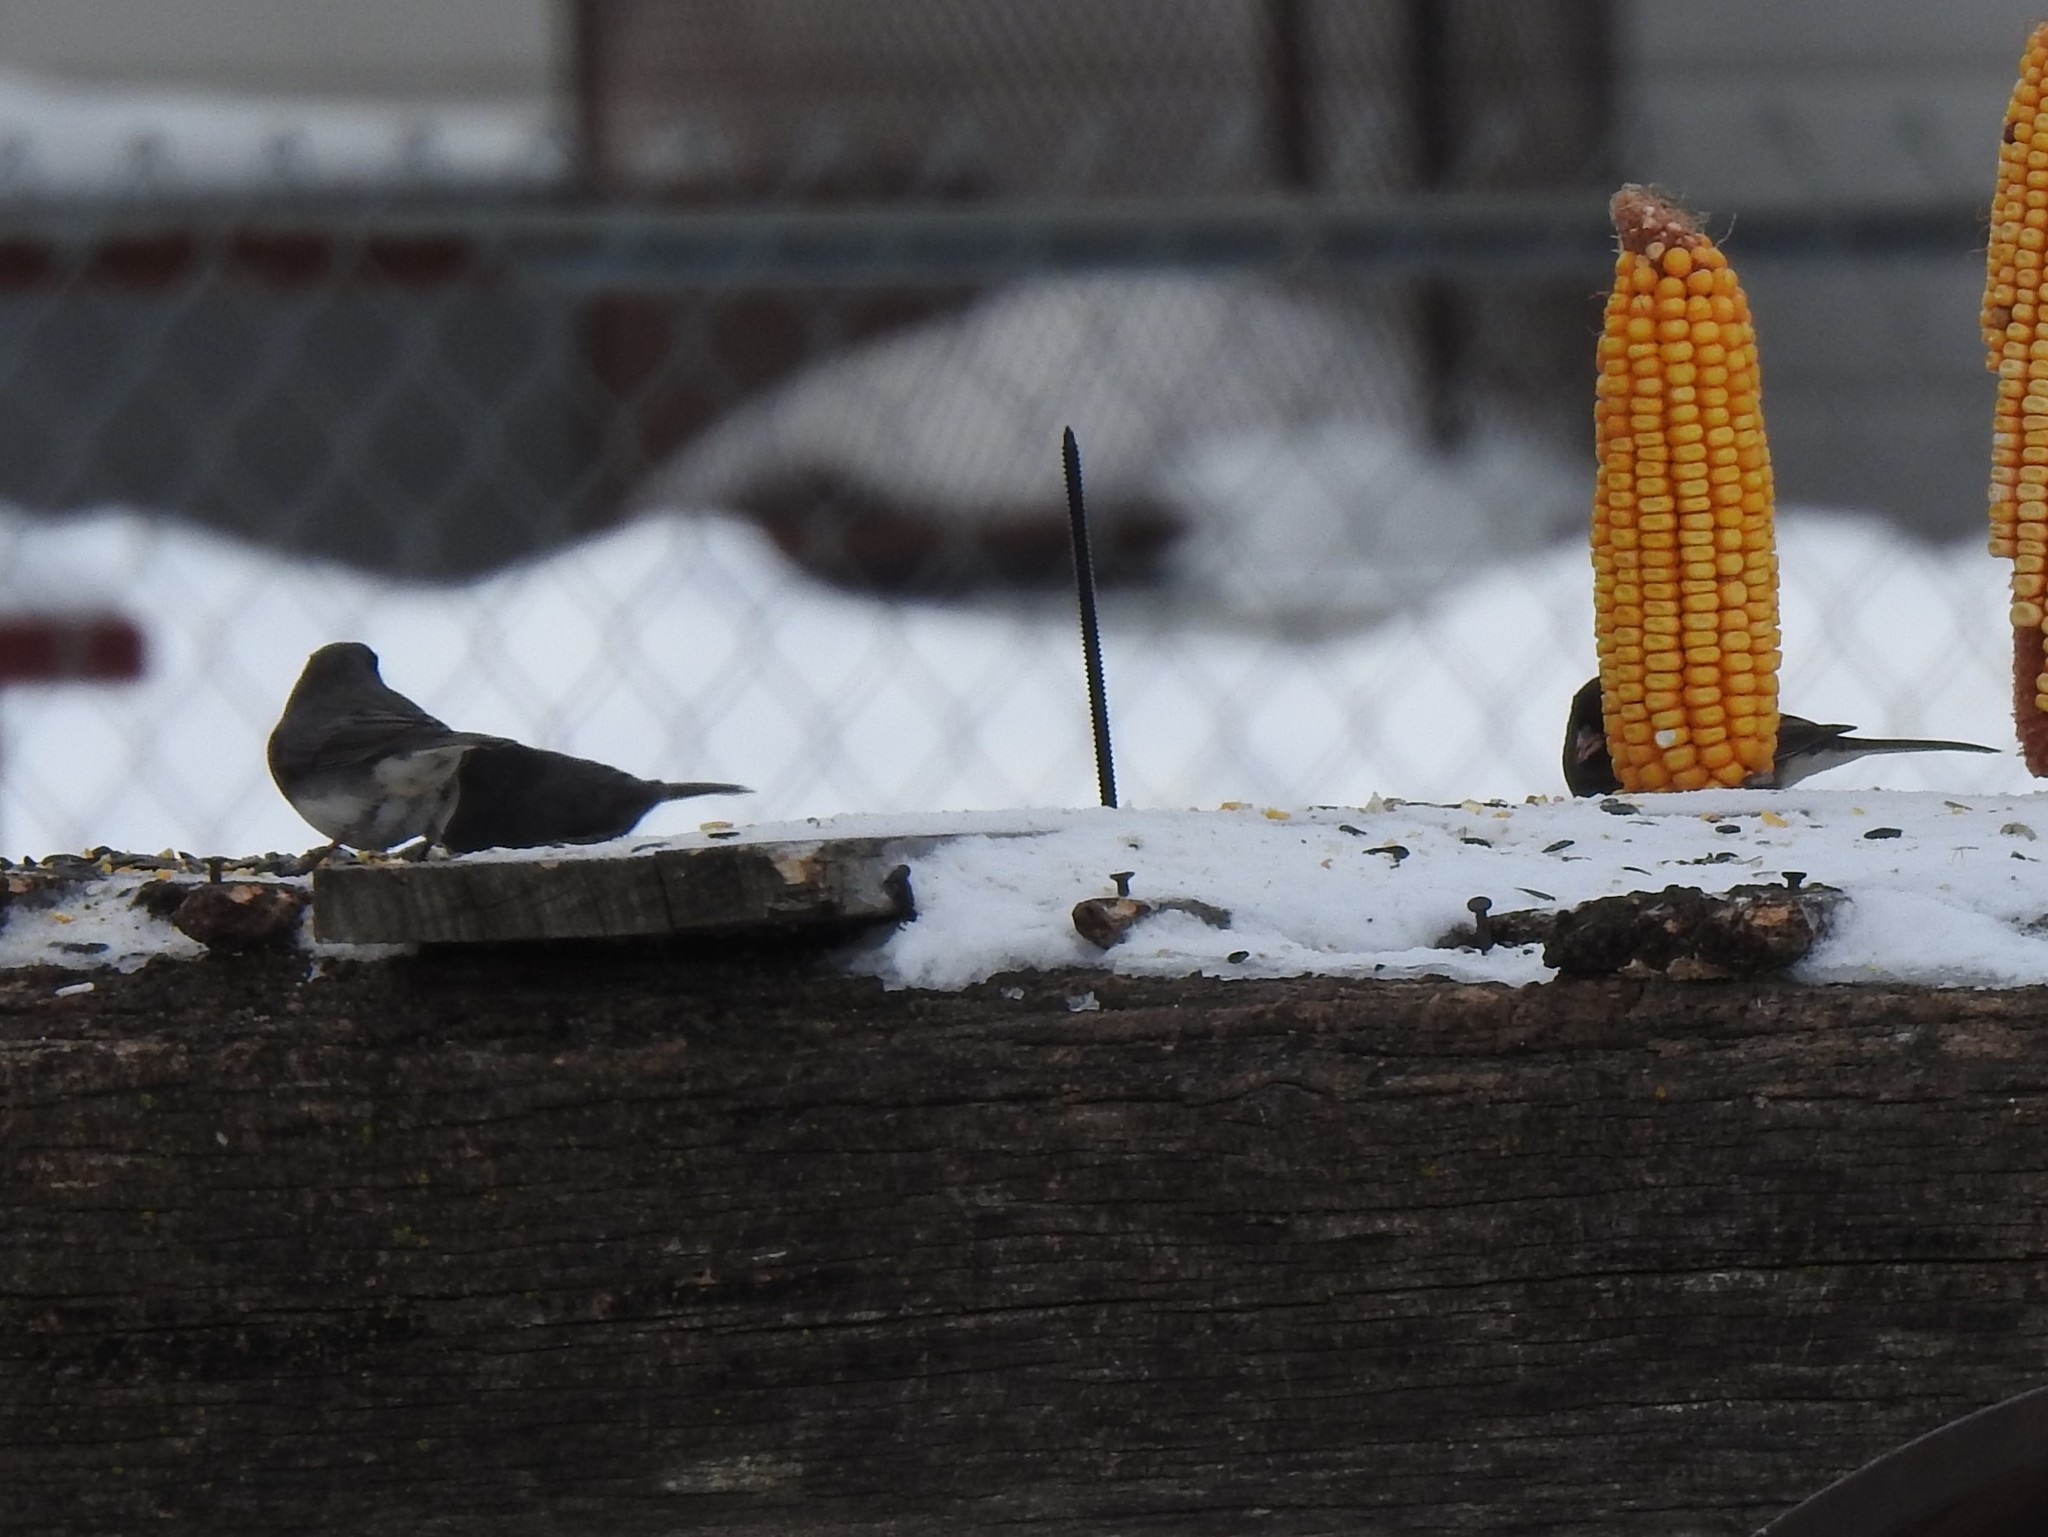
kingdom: Animalia
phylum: Chordata
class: Aves
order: Passeriformes
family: Passerellidae
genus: Junco
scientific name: Junco hyemalis
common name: Dark-eyed junco
